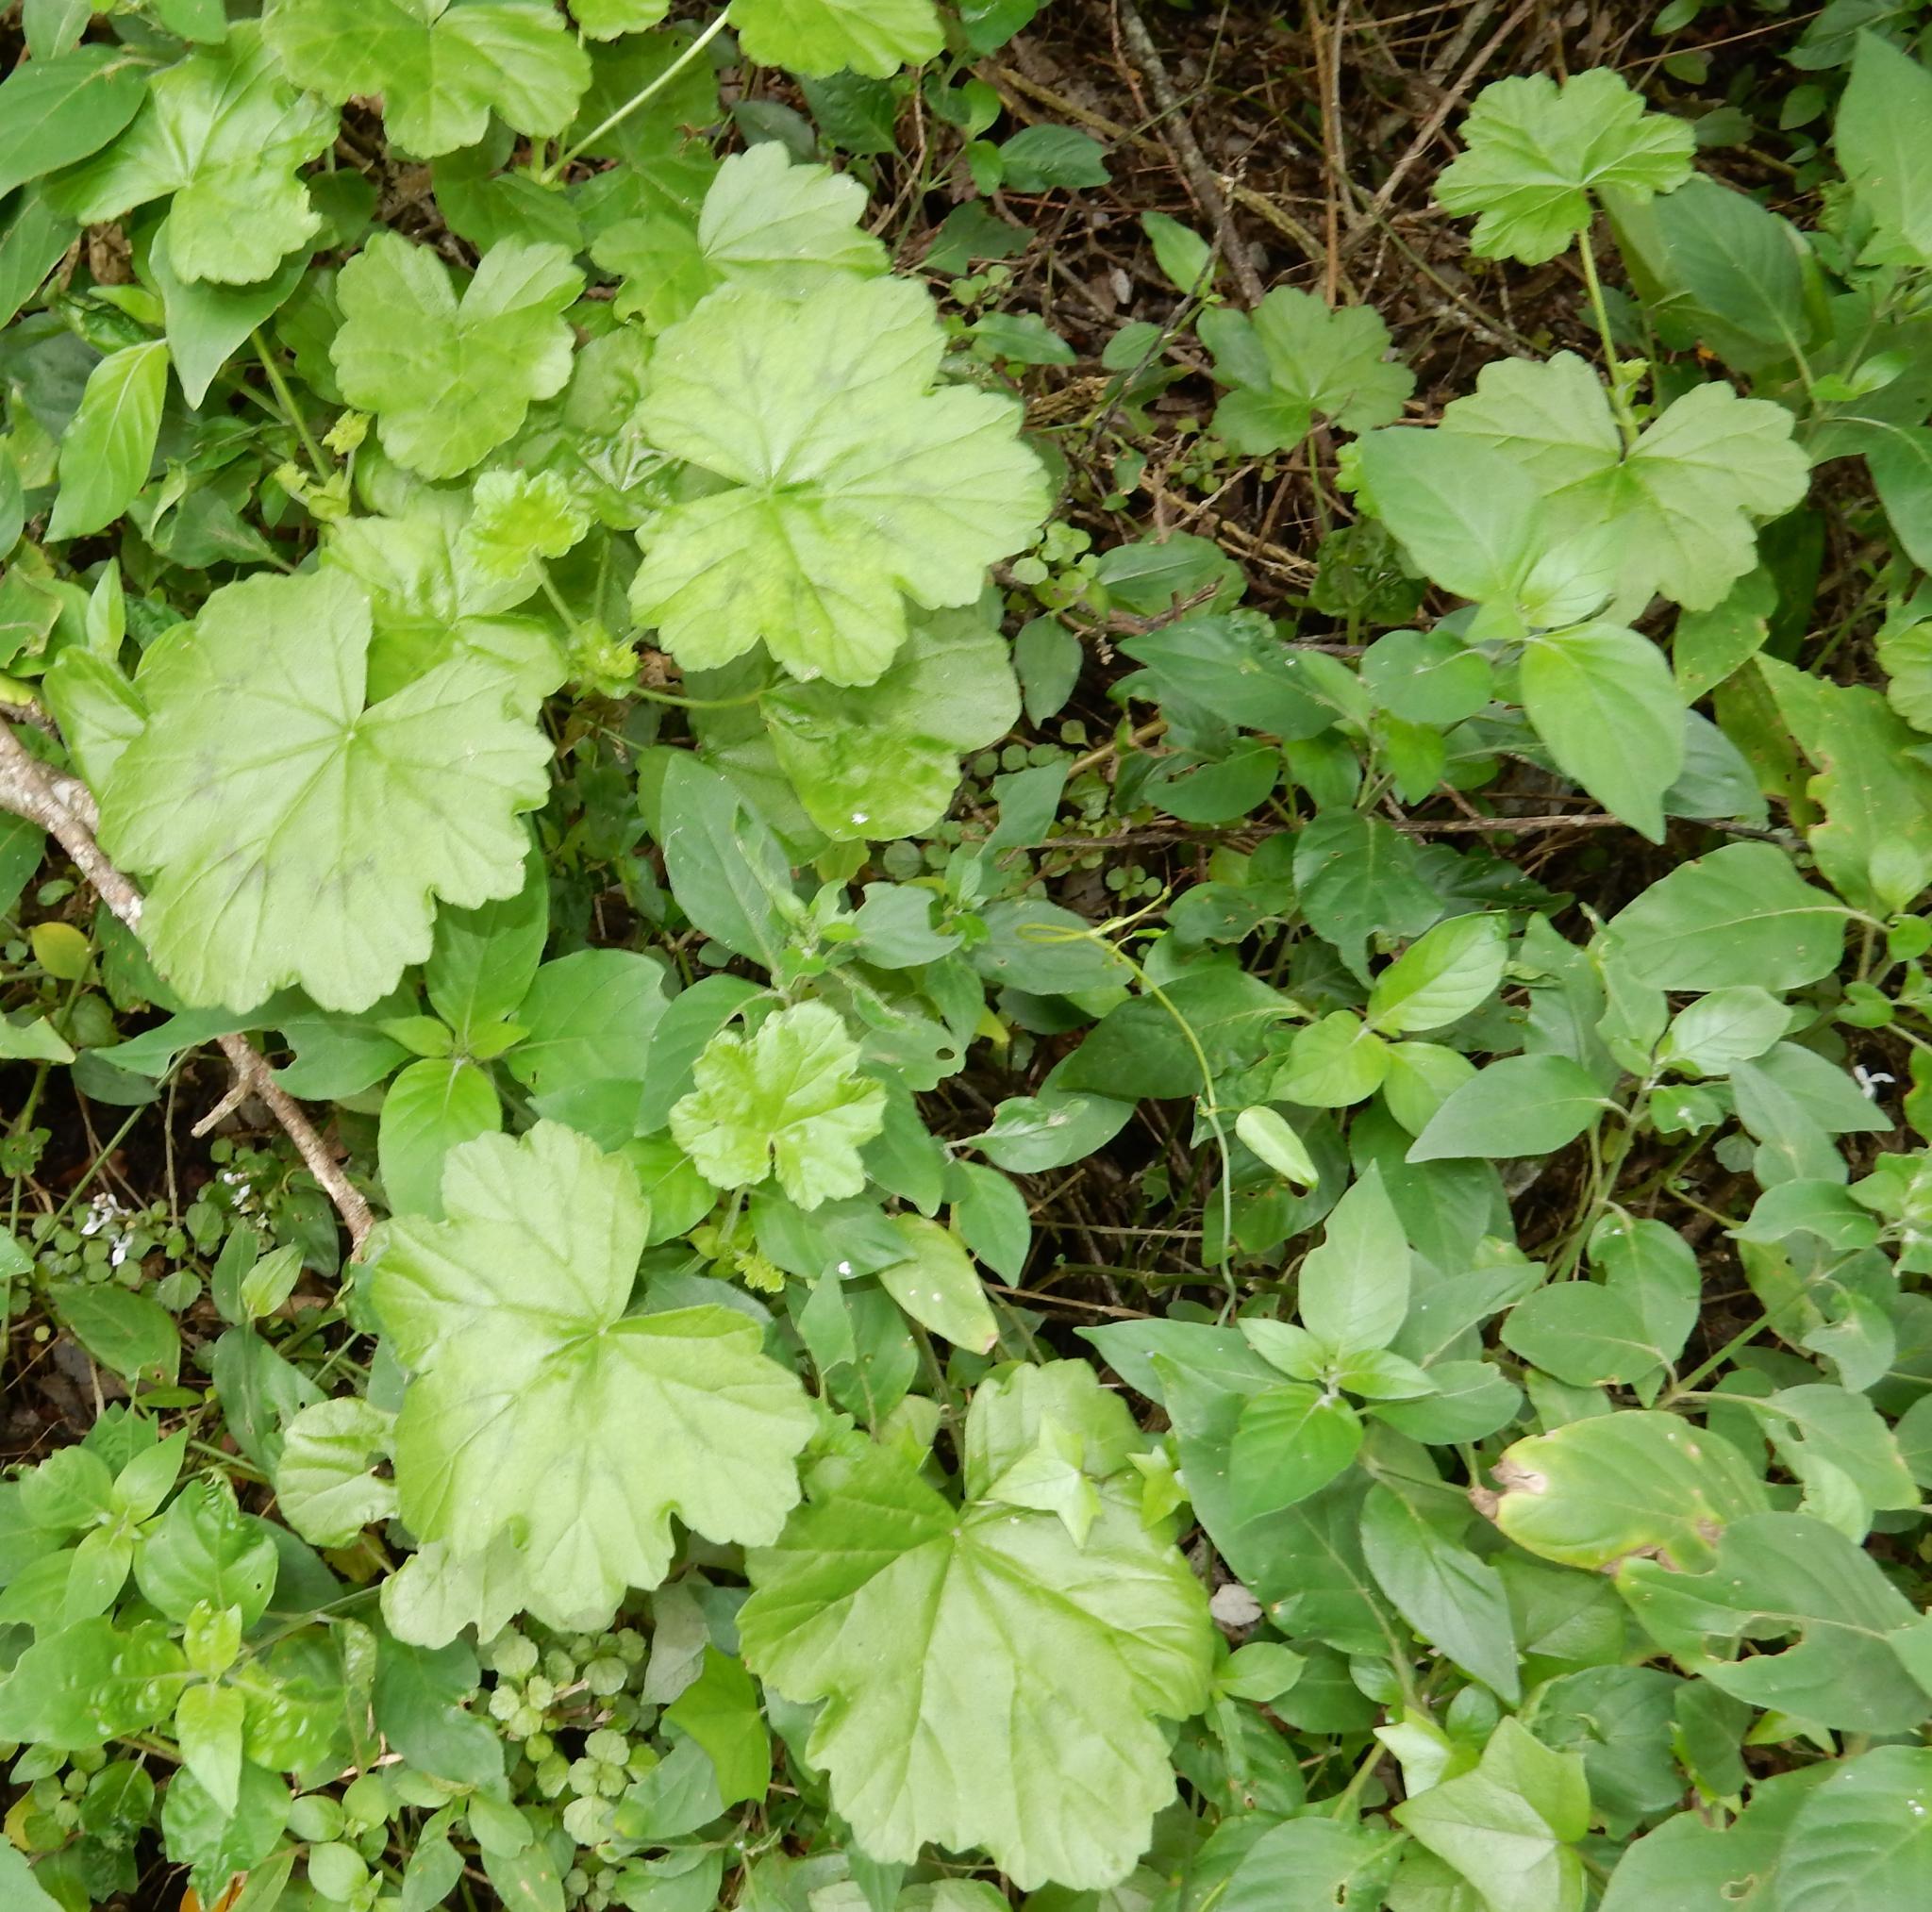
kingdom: Plantae
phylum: Tracheophyta
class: Magnoliopsida
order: Geraniales
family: Geraniaceae
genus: Pelargonium
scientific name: Pelargonium frutetorum
